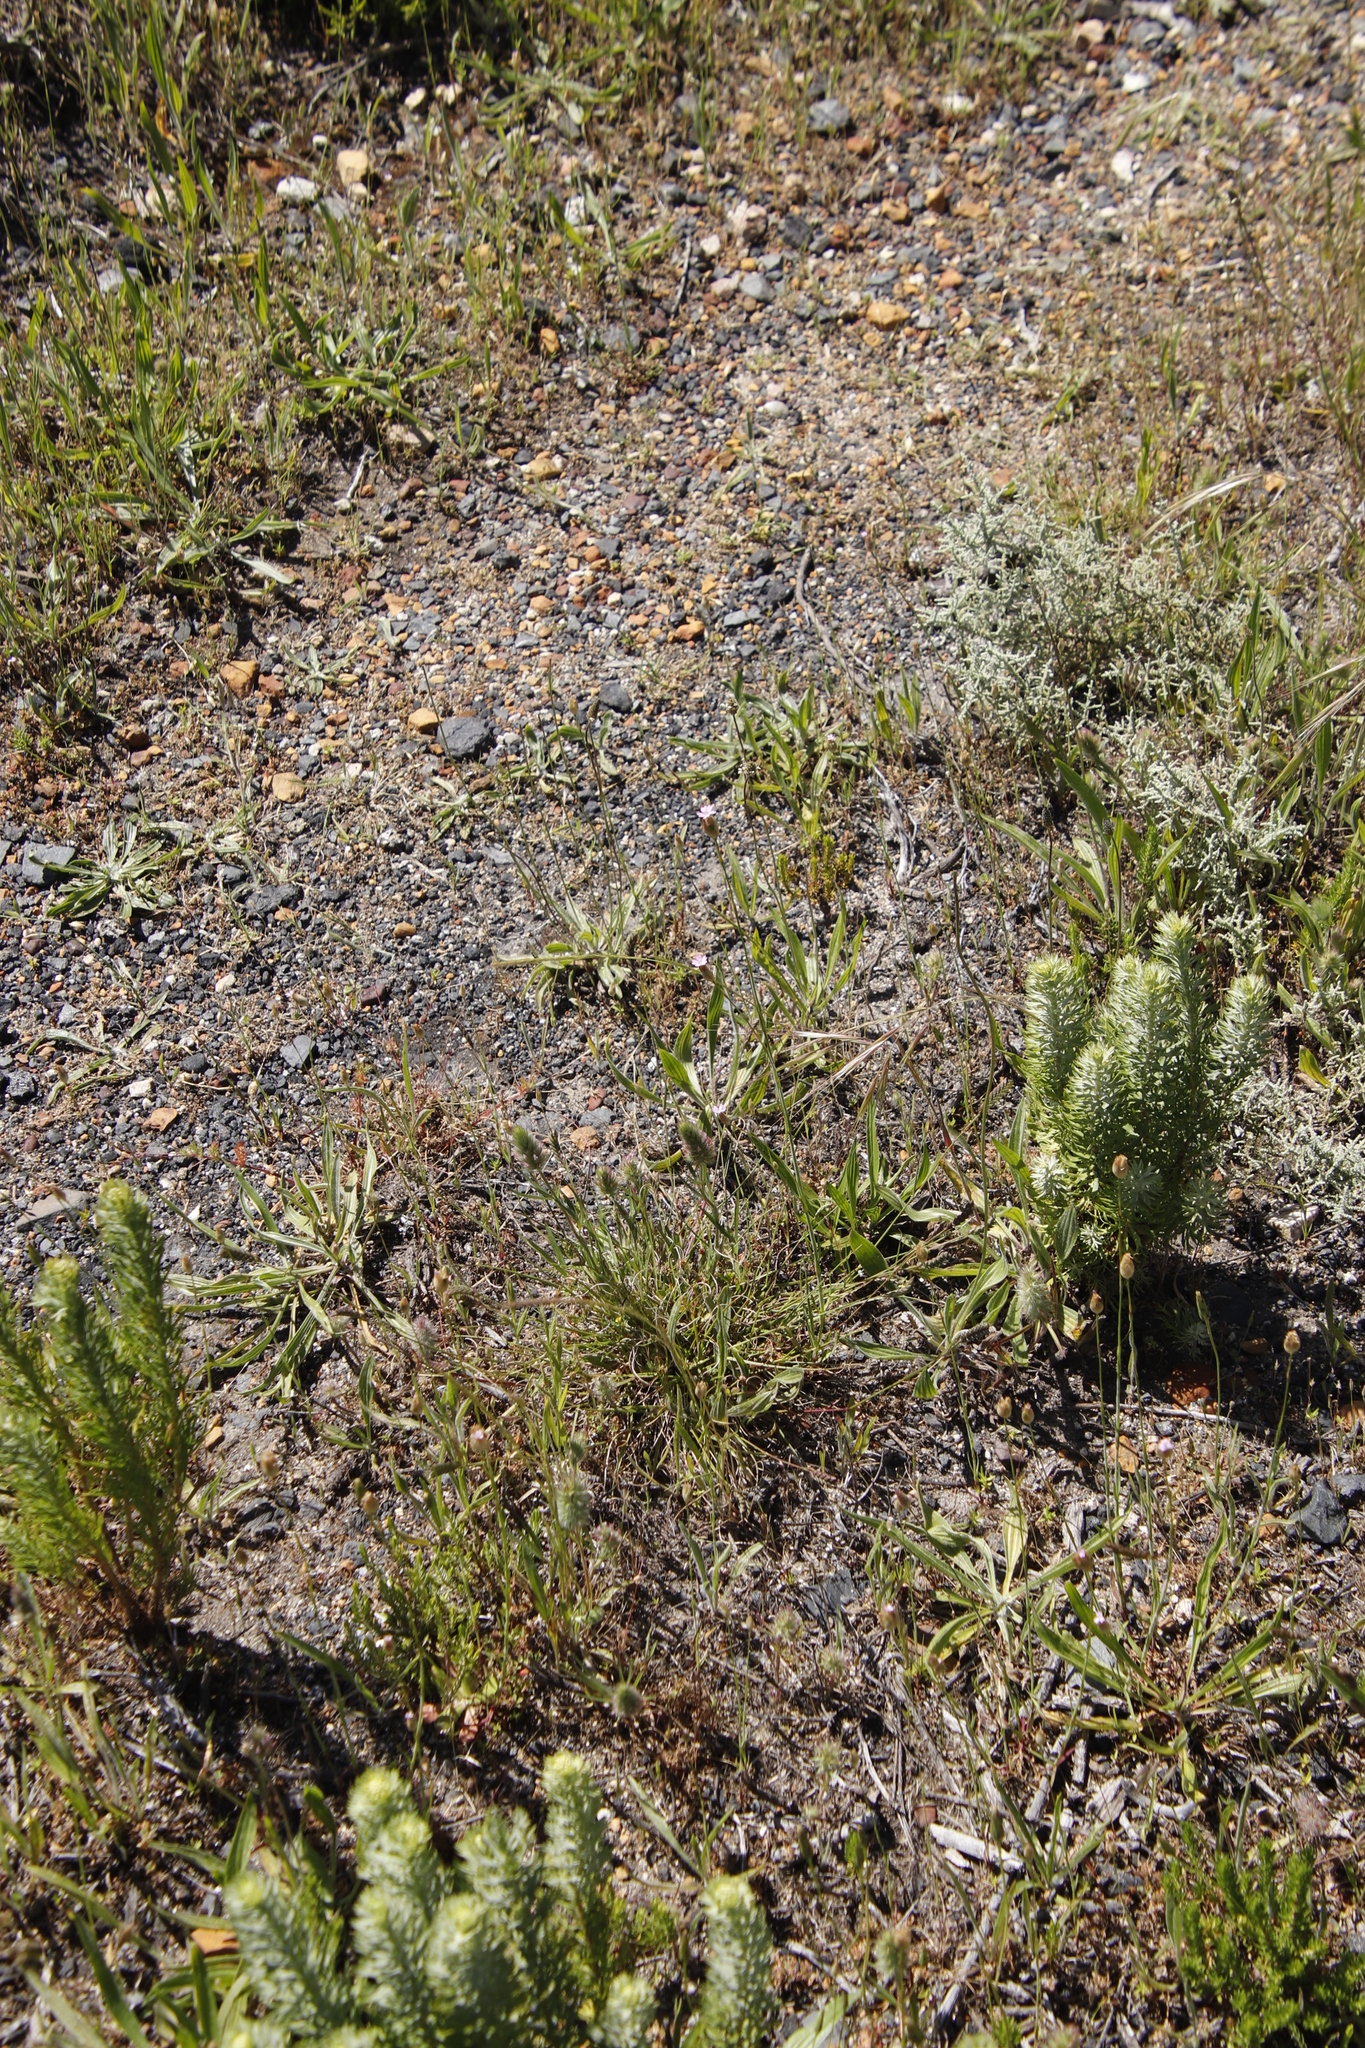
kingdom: Plantae
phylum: Tracheophyta
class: Magnoliopsida
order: Lamiales
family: Plantaginaceae
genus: Plantago
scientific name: Plantago lanceolata
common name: Ribwort plantain
